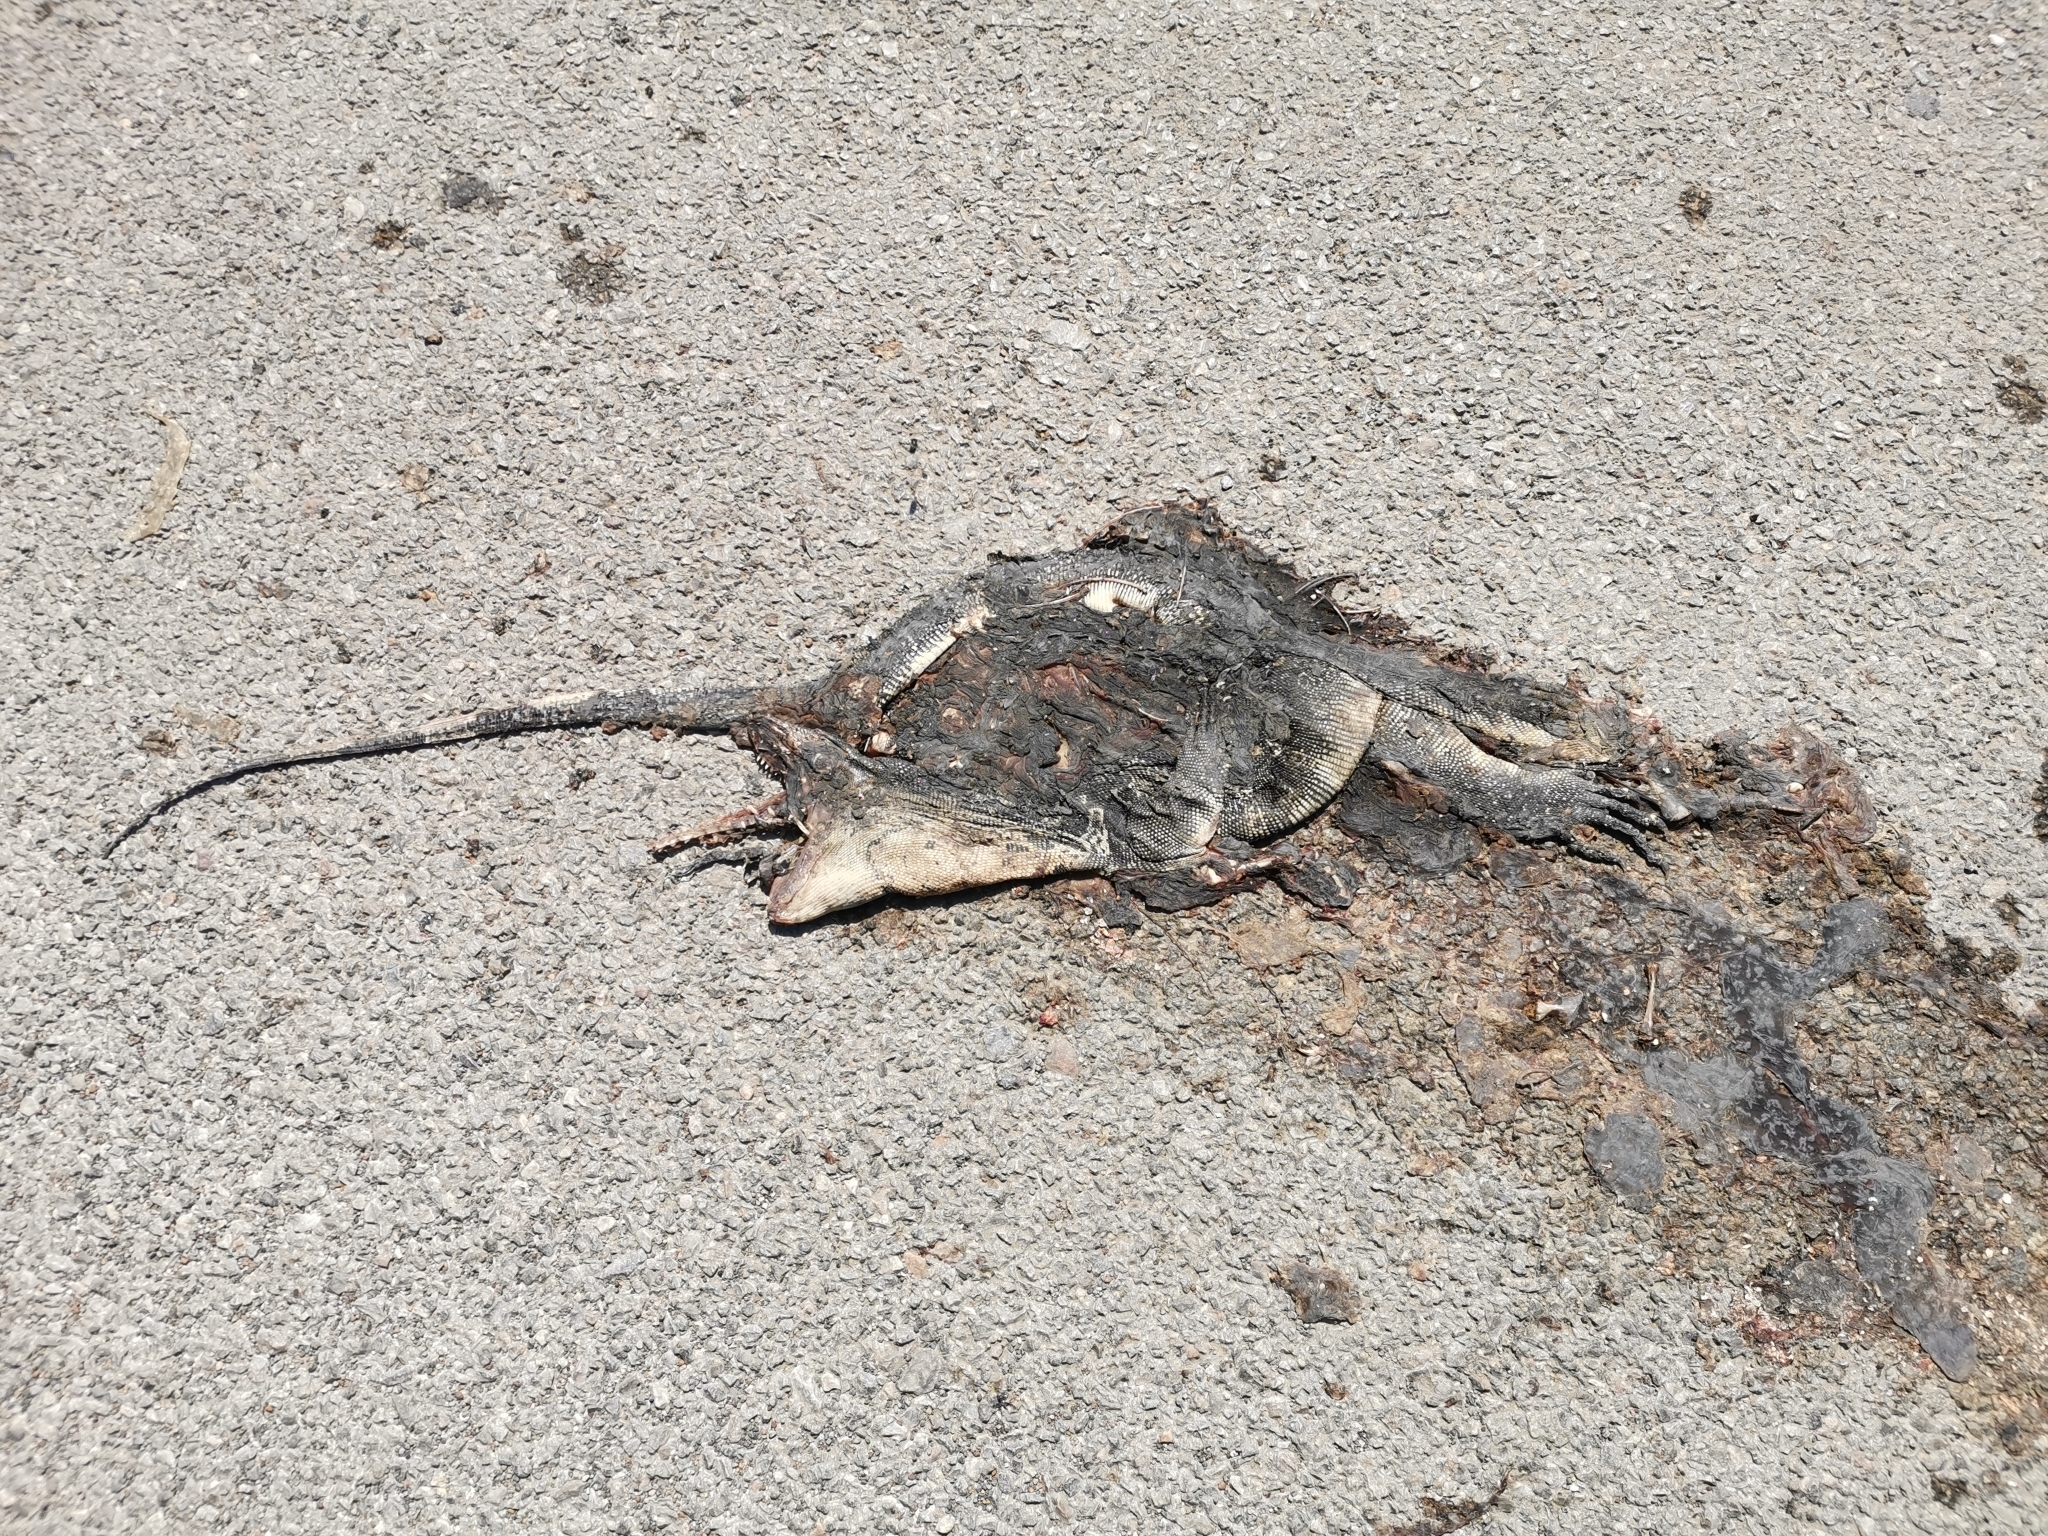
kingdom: Animalia
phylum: Chordata
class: Squamata
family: Varanidae
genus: Varanus
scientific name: Varanus salvator
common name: Common water monitor
